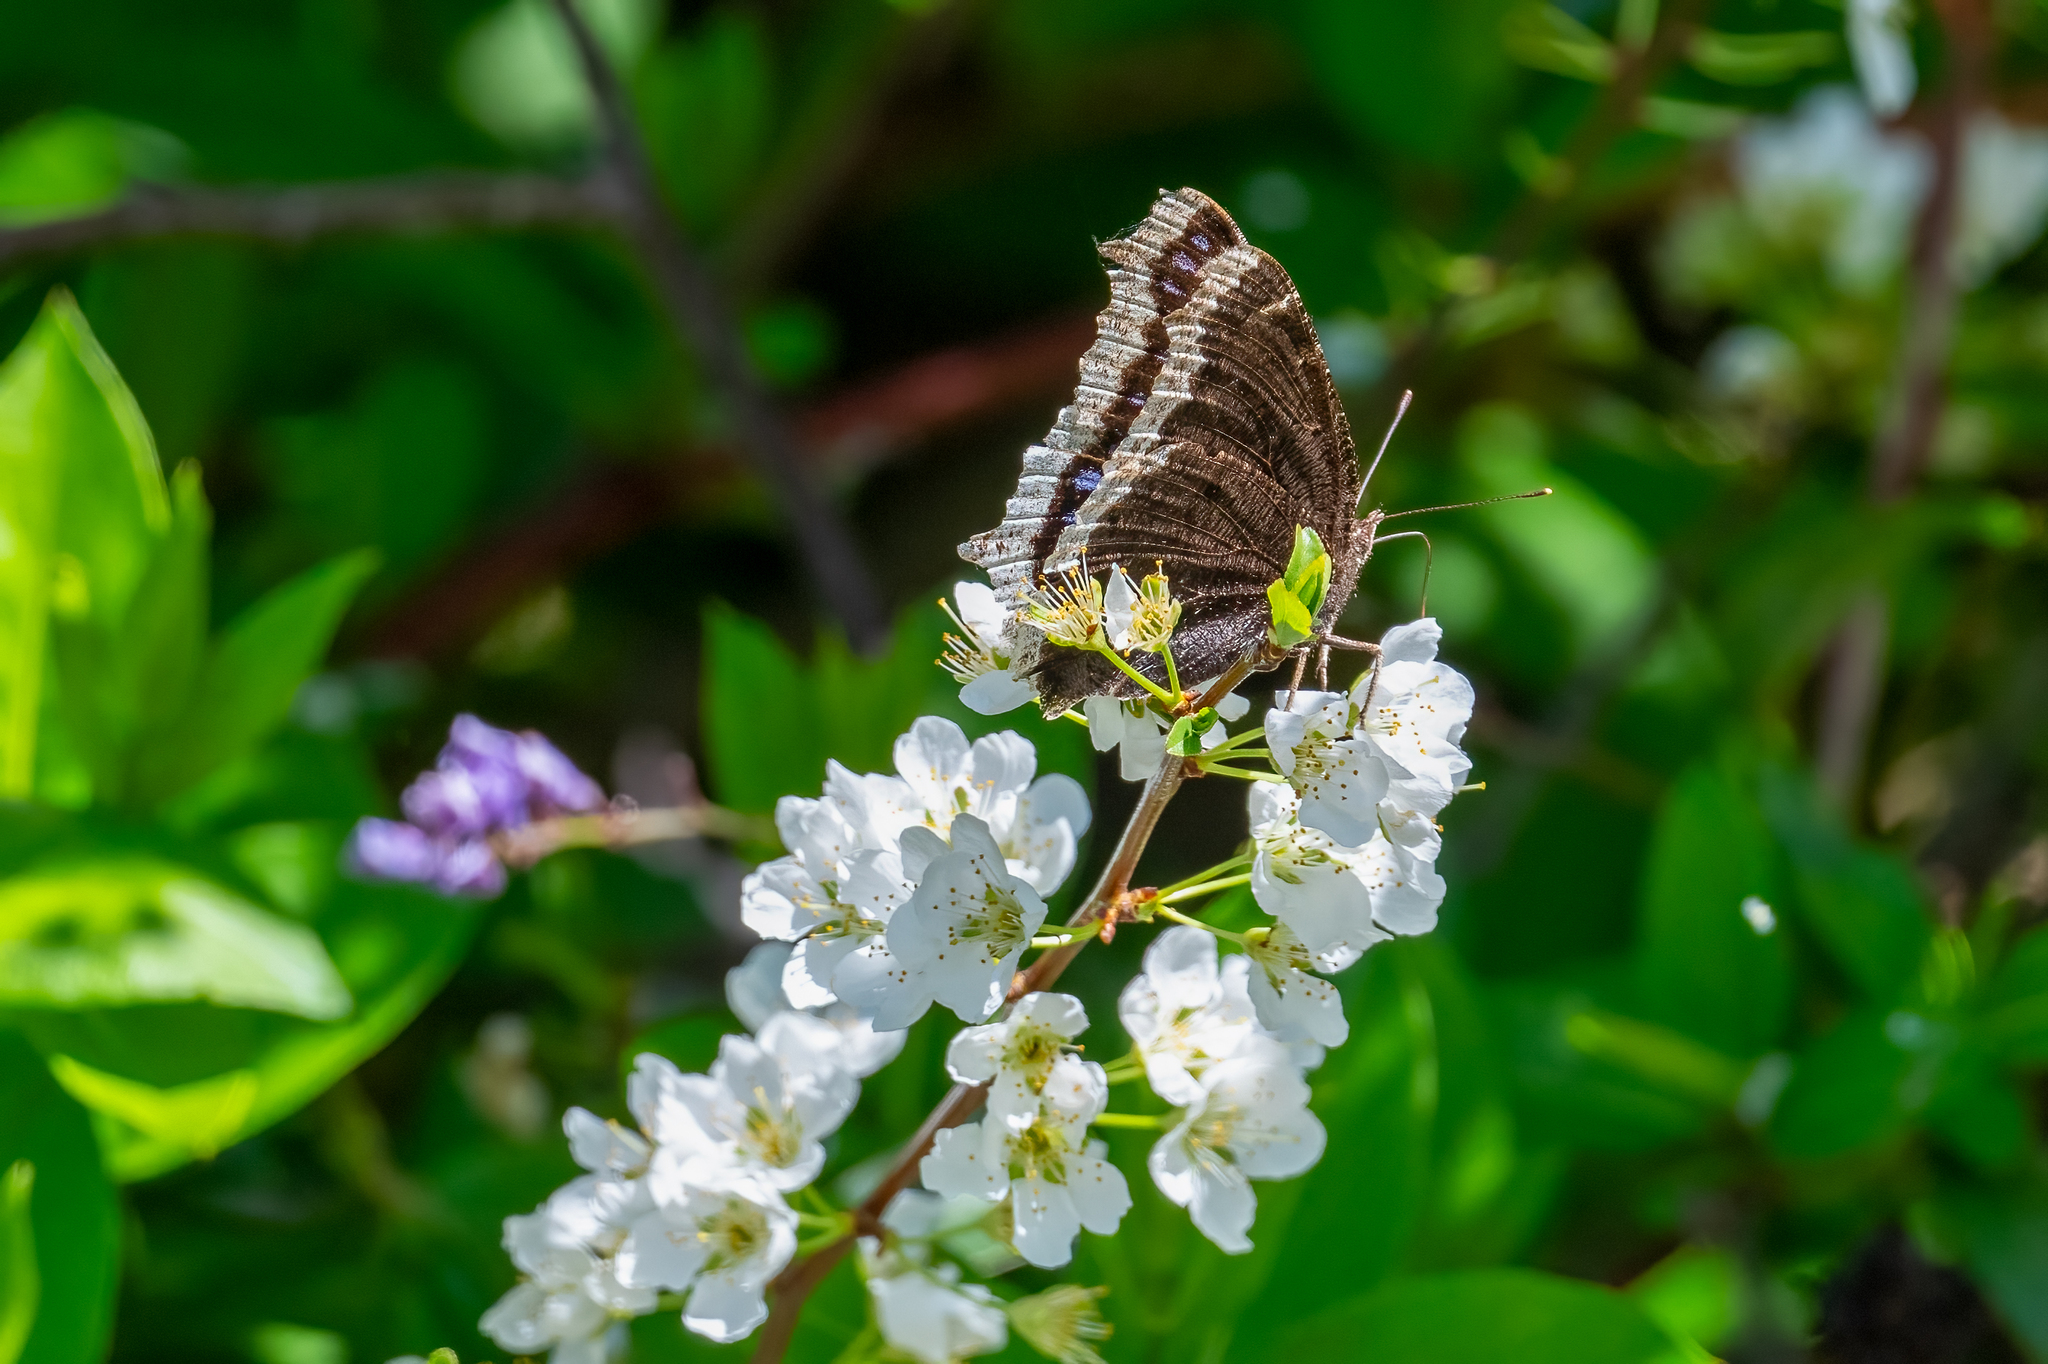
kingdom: Animalia
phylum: Arthropoda
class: Insecta
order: Lepidoptera
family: Nymphalidae
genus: Nymphalis
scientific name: Nymphalis antiopa
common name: Camberwell beauty
